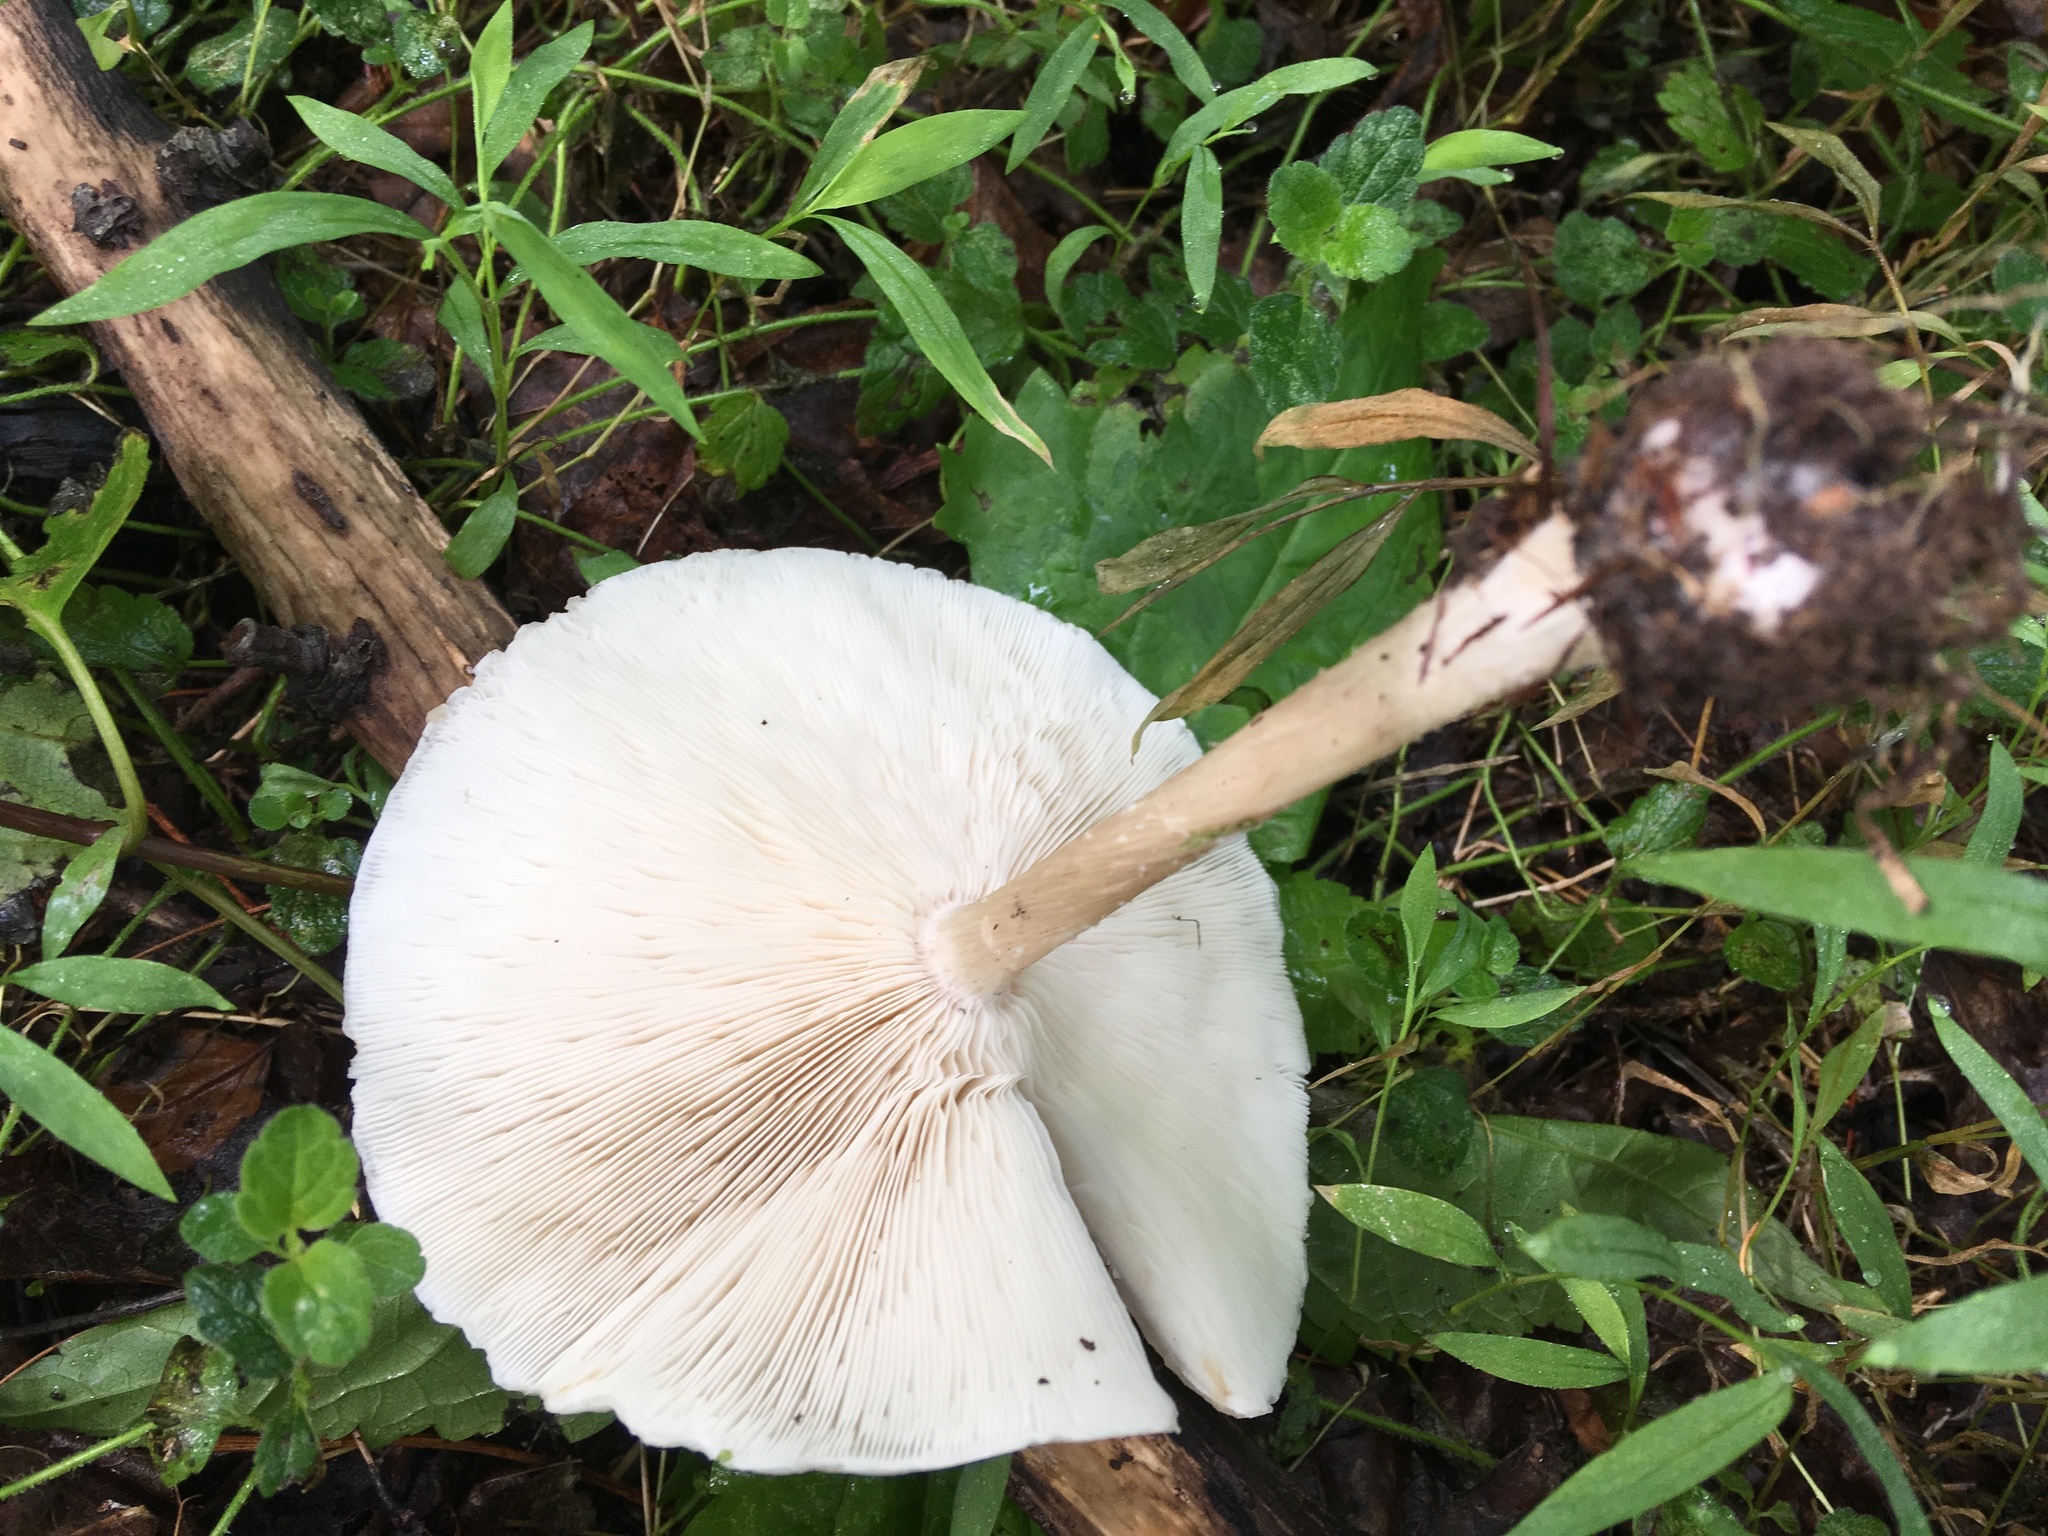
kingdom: Fungi
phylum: Basidiomycota
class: Agaricomycetes
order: Agaricales
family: Tricholomataceae
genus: Collybia
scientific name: Collybia alboflavida
